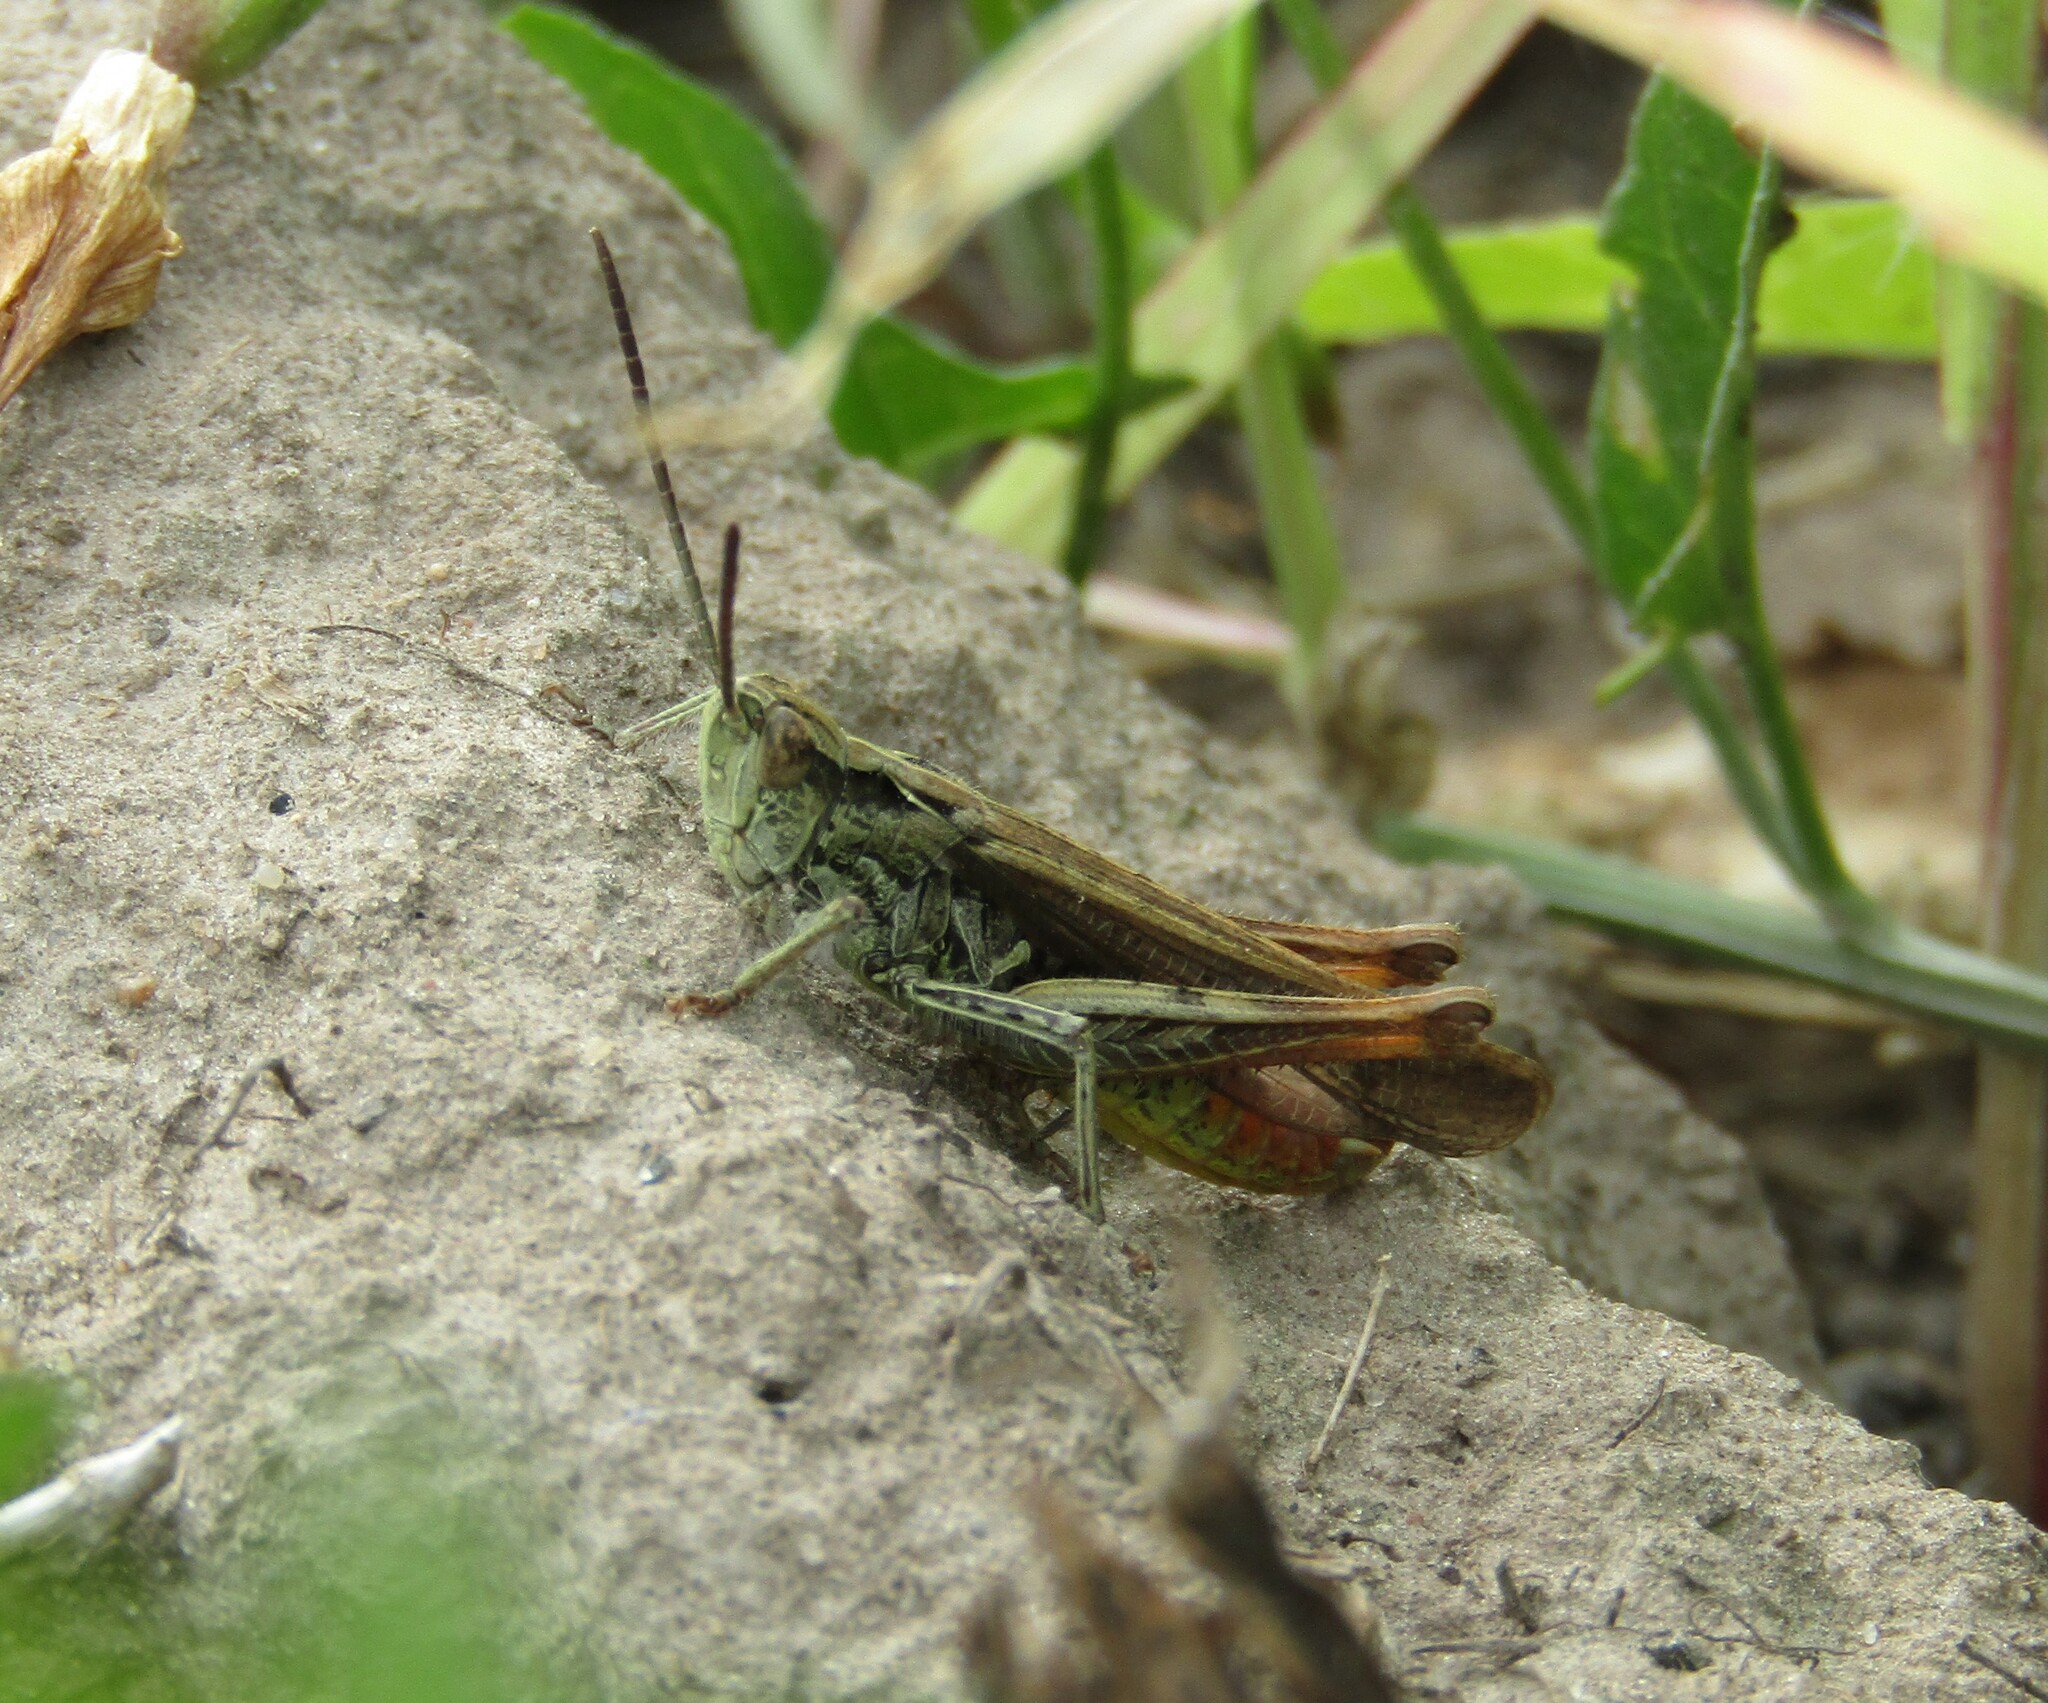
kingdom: Animalia
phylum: Arthropoda
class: Insecta
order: Orthoptera
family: Acrididae
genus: Chorthippus
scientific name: Chorthippus biguttulus
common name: Bow-winged grasshopper
